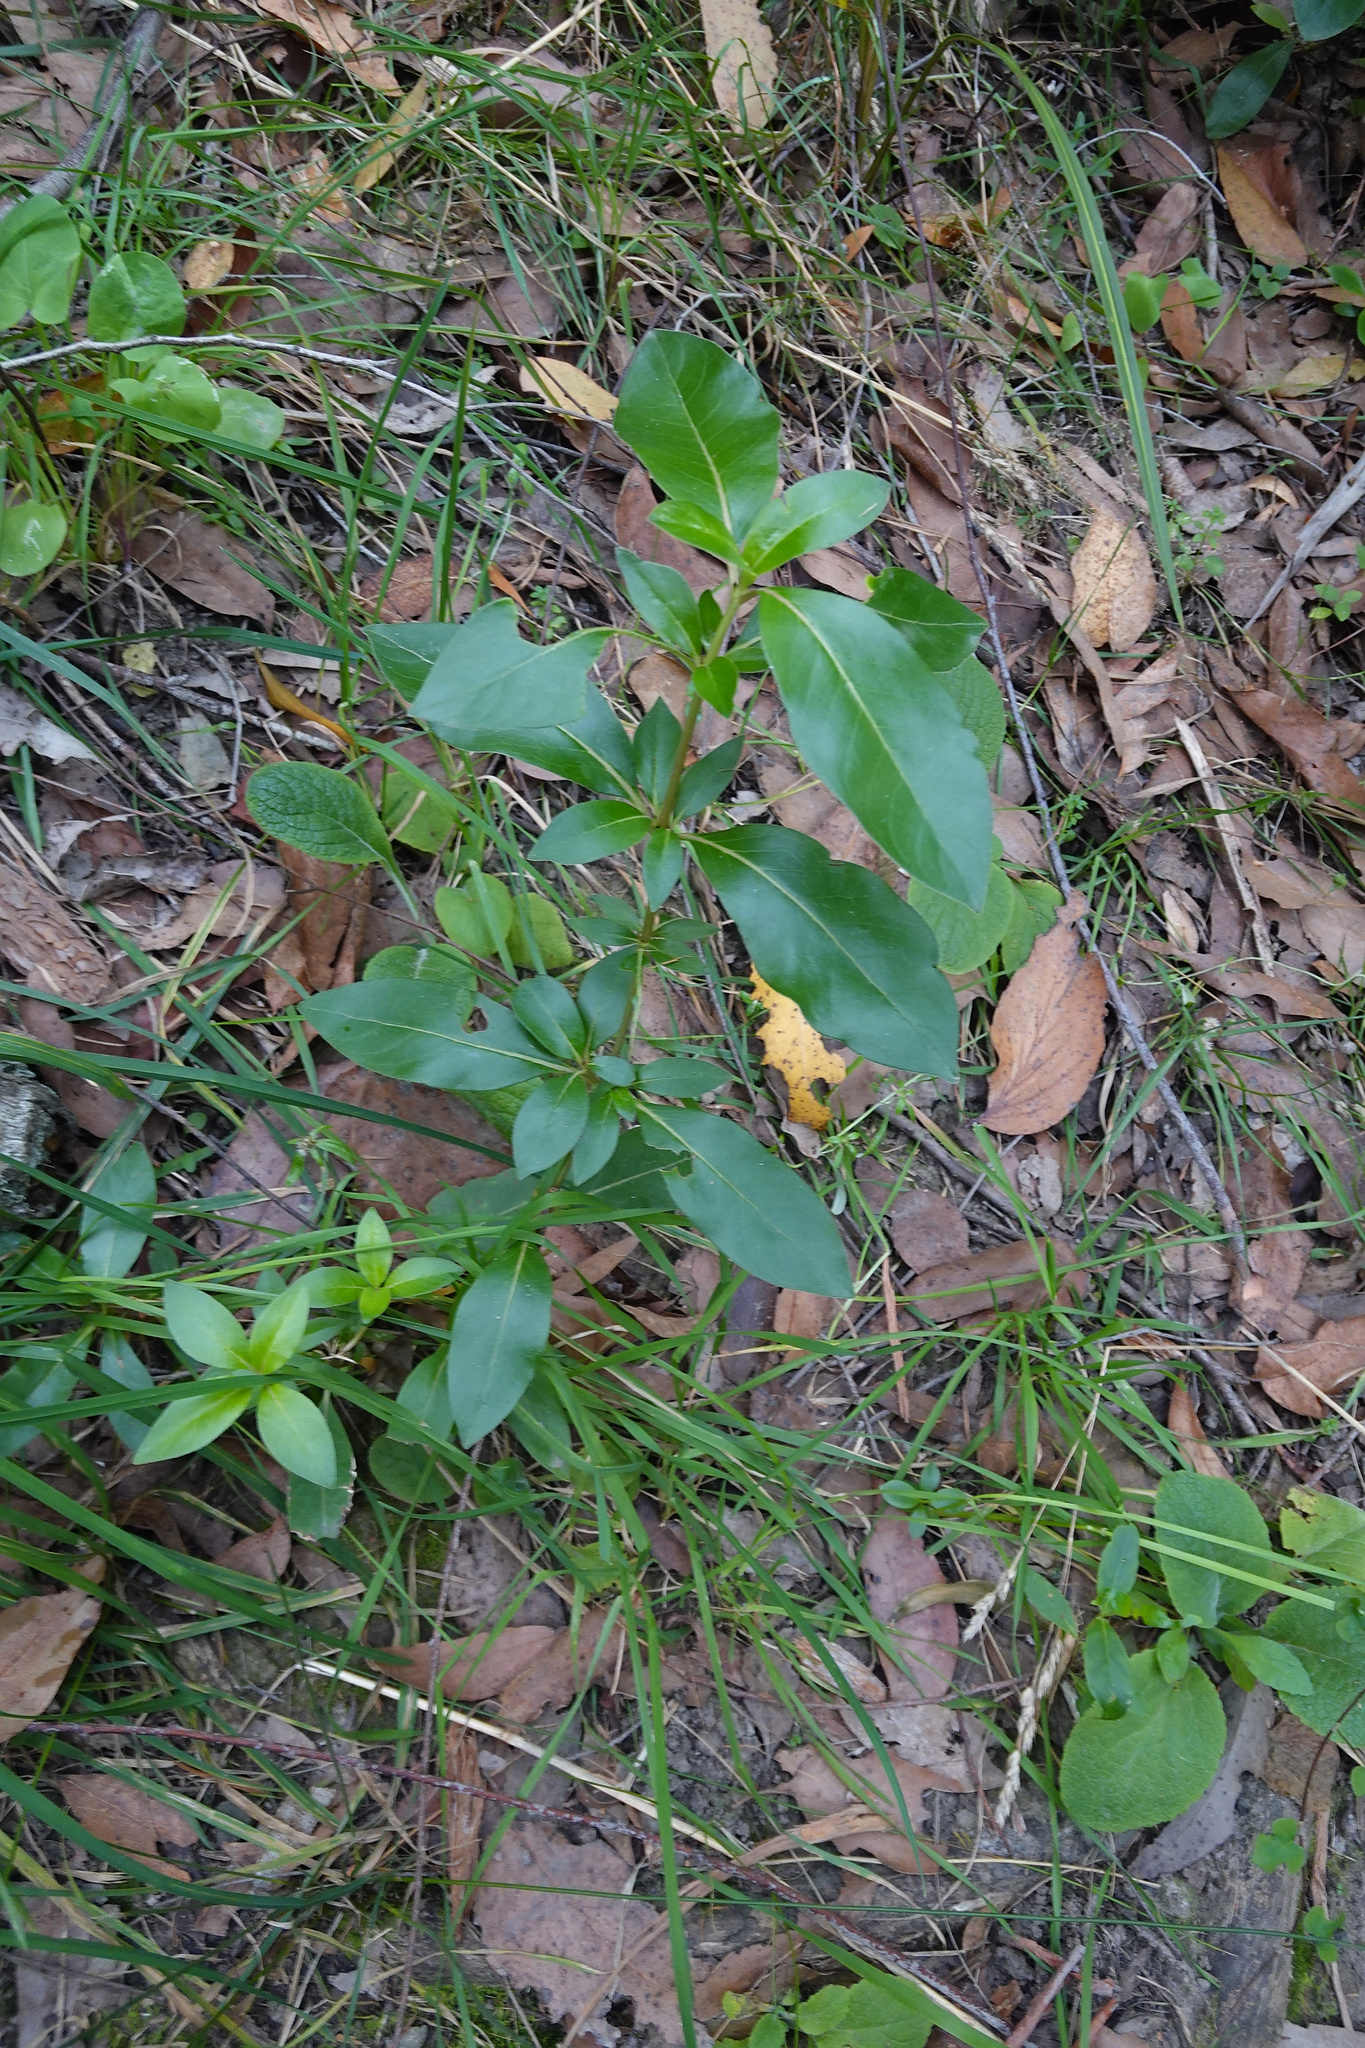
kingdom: Plantae
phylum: Tracheophyta
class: Magnoliopsida
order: Gentianales
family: Rubiaceae
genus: Coprosma
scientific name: Coprosma robusta
